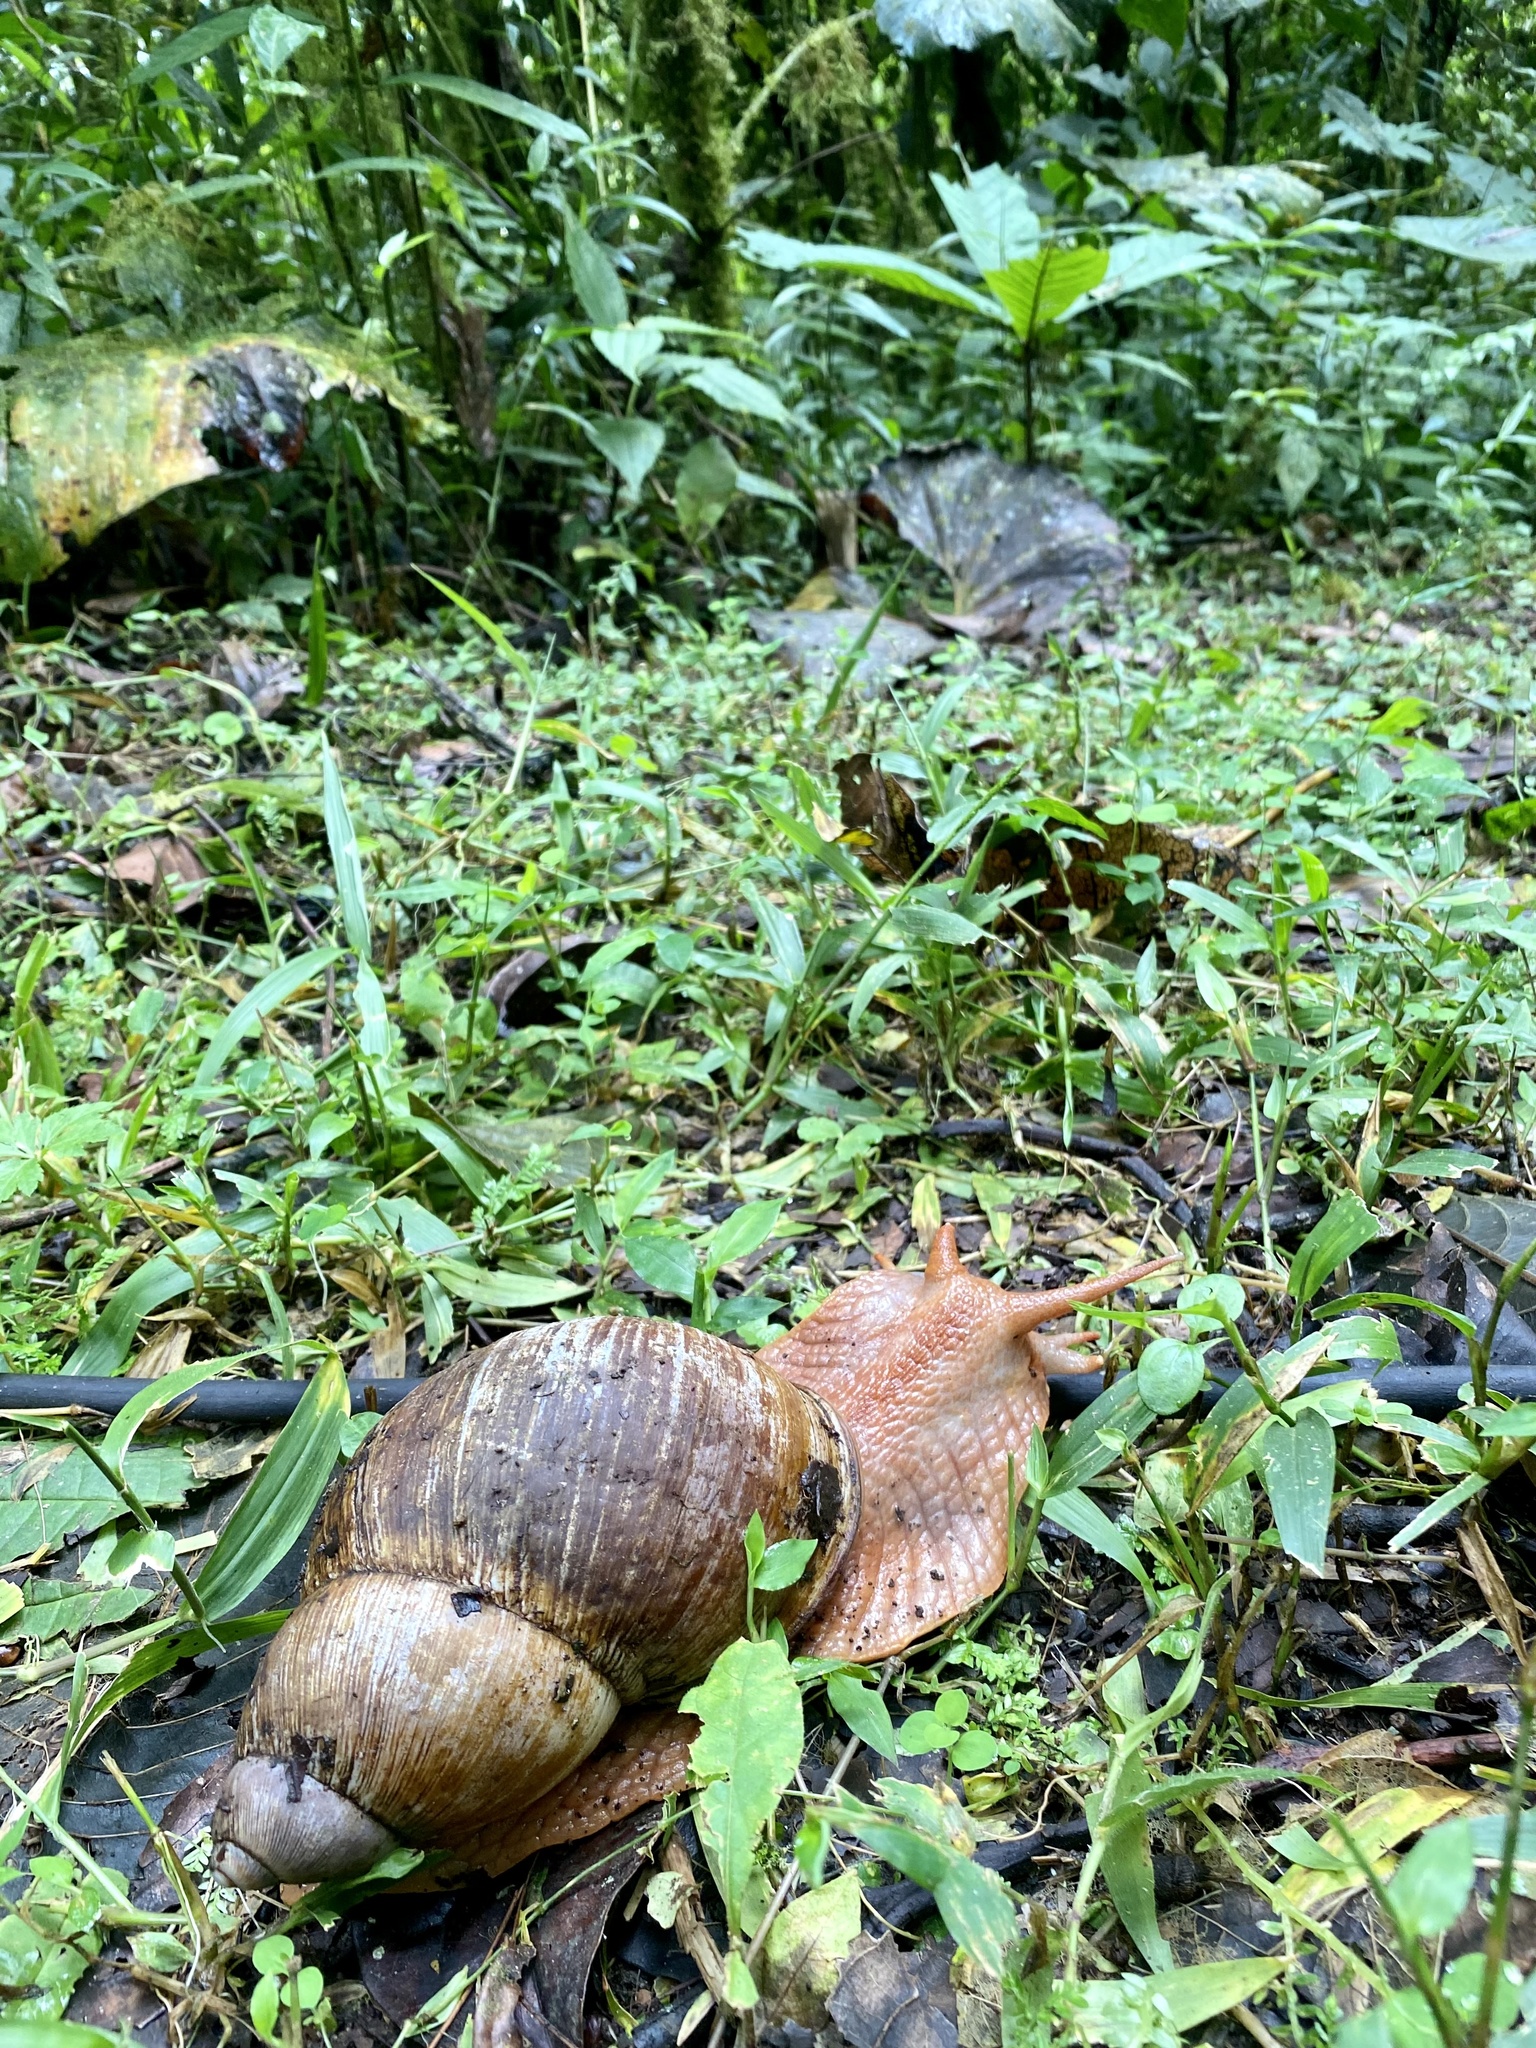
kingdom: Animalia
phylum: Mollusca
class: Gastropoda
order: Stylommatophora
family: Strophocheilidae
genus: Megalobulimus
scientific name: Megalobulimus popelairianus
